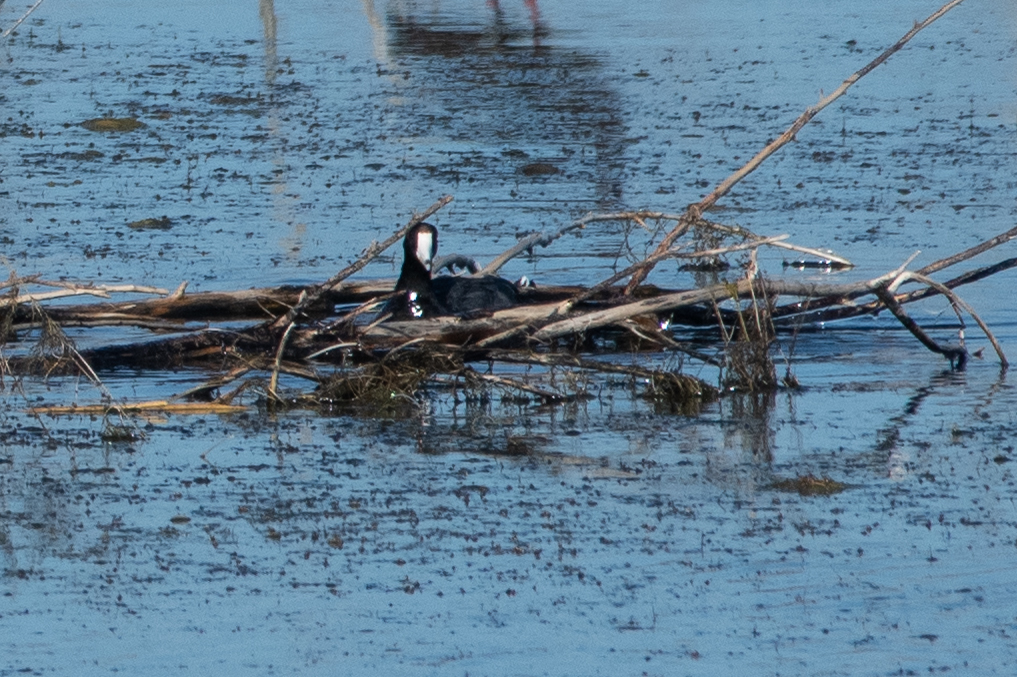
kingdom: Animalia
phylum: Chordata
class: Aves
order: Gruiformes
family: Rallidae
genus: Fulica
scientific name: Fulica americana
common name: American coot
